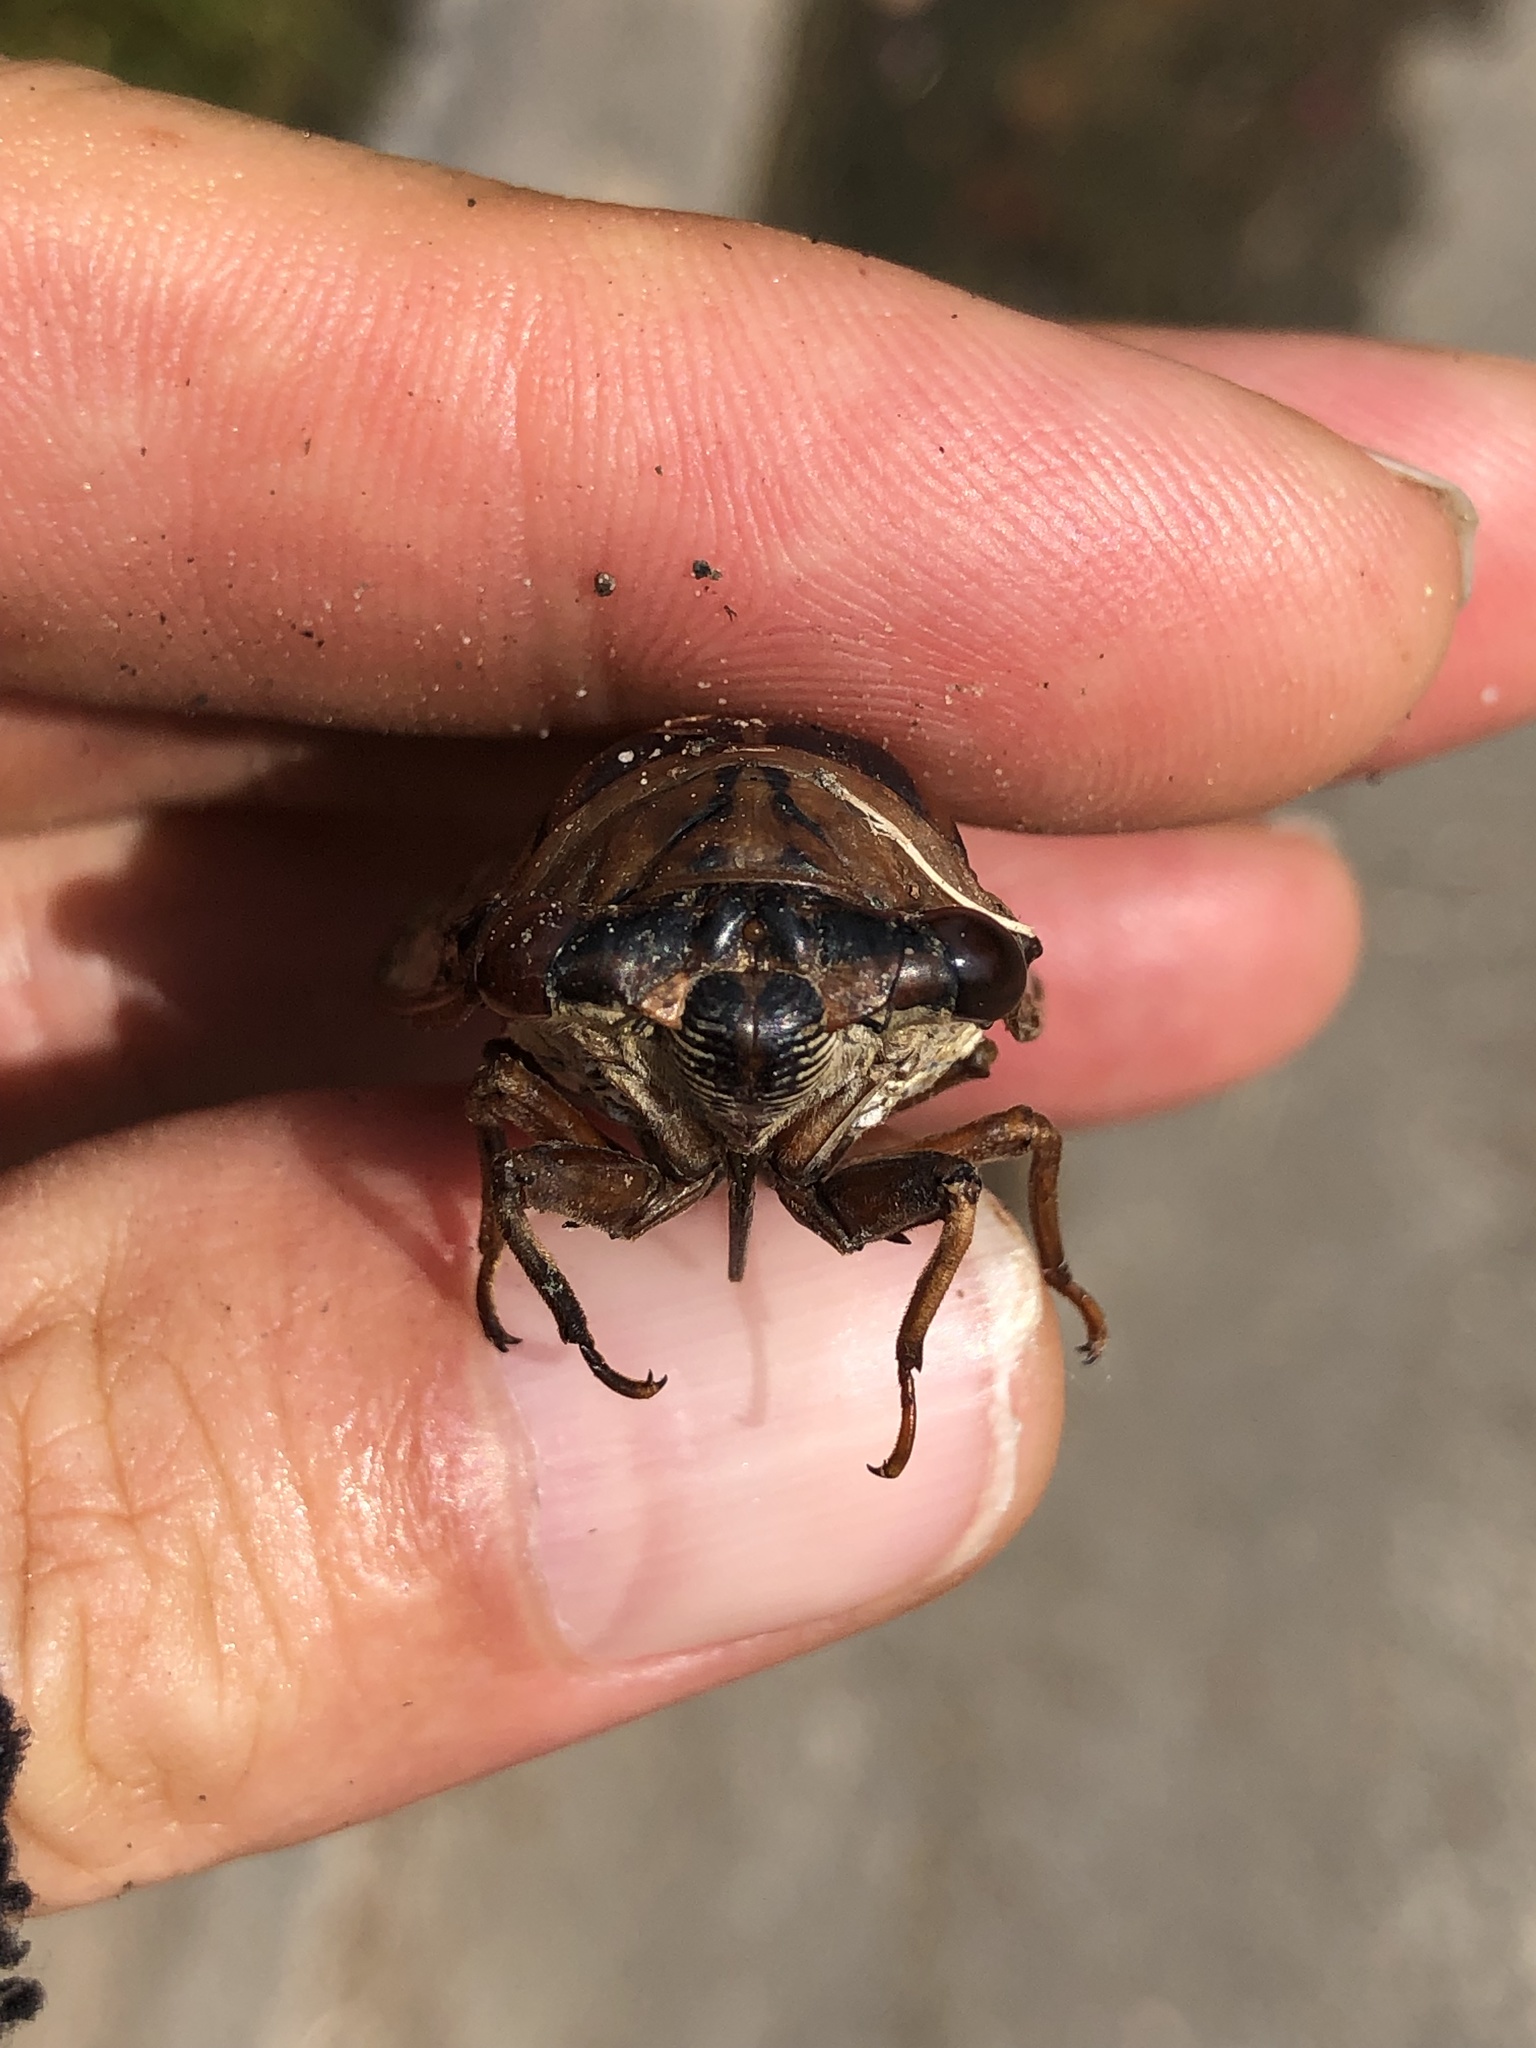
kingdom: Animalia
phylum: Arthropoda
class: Insecta
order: Hemiptera
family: Cicadidae
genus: Megatibicen
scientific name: Megatibicen resh
